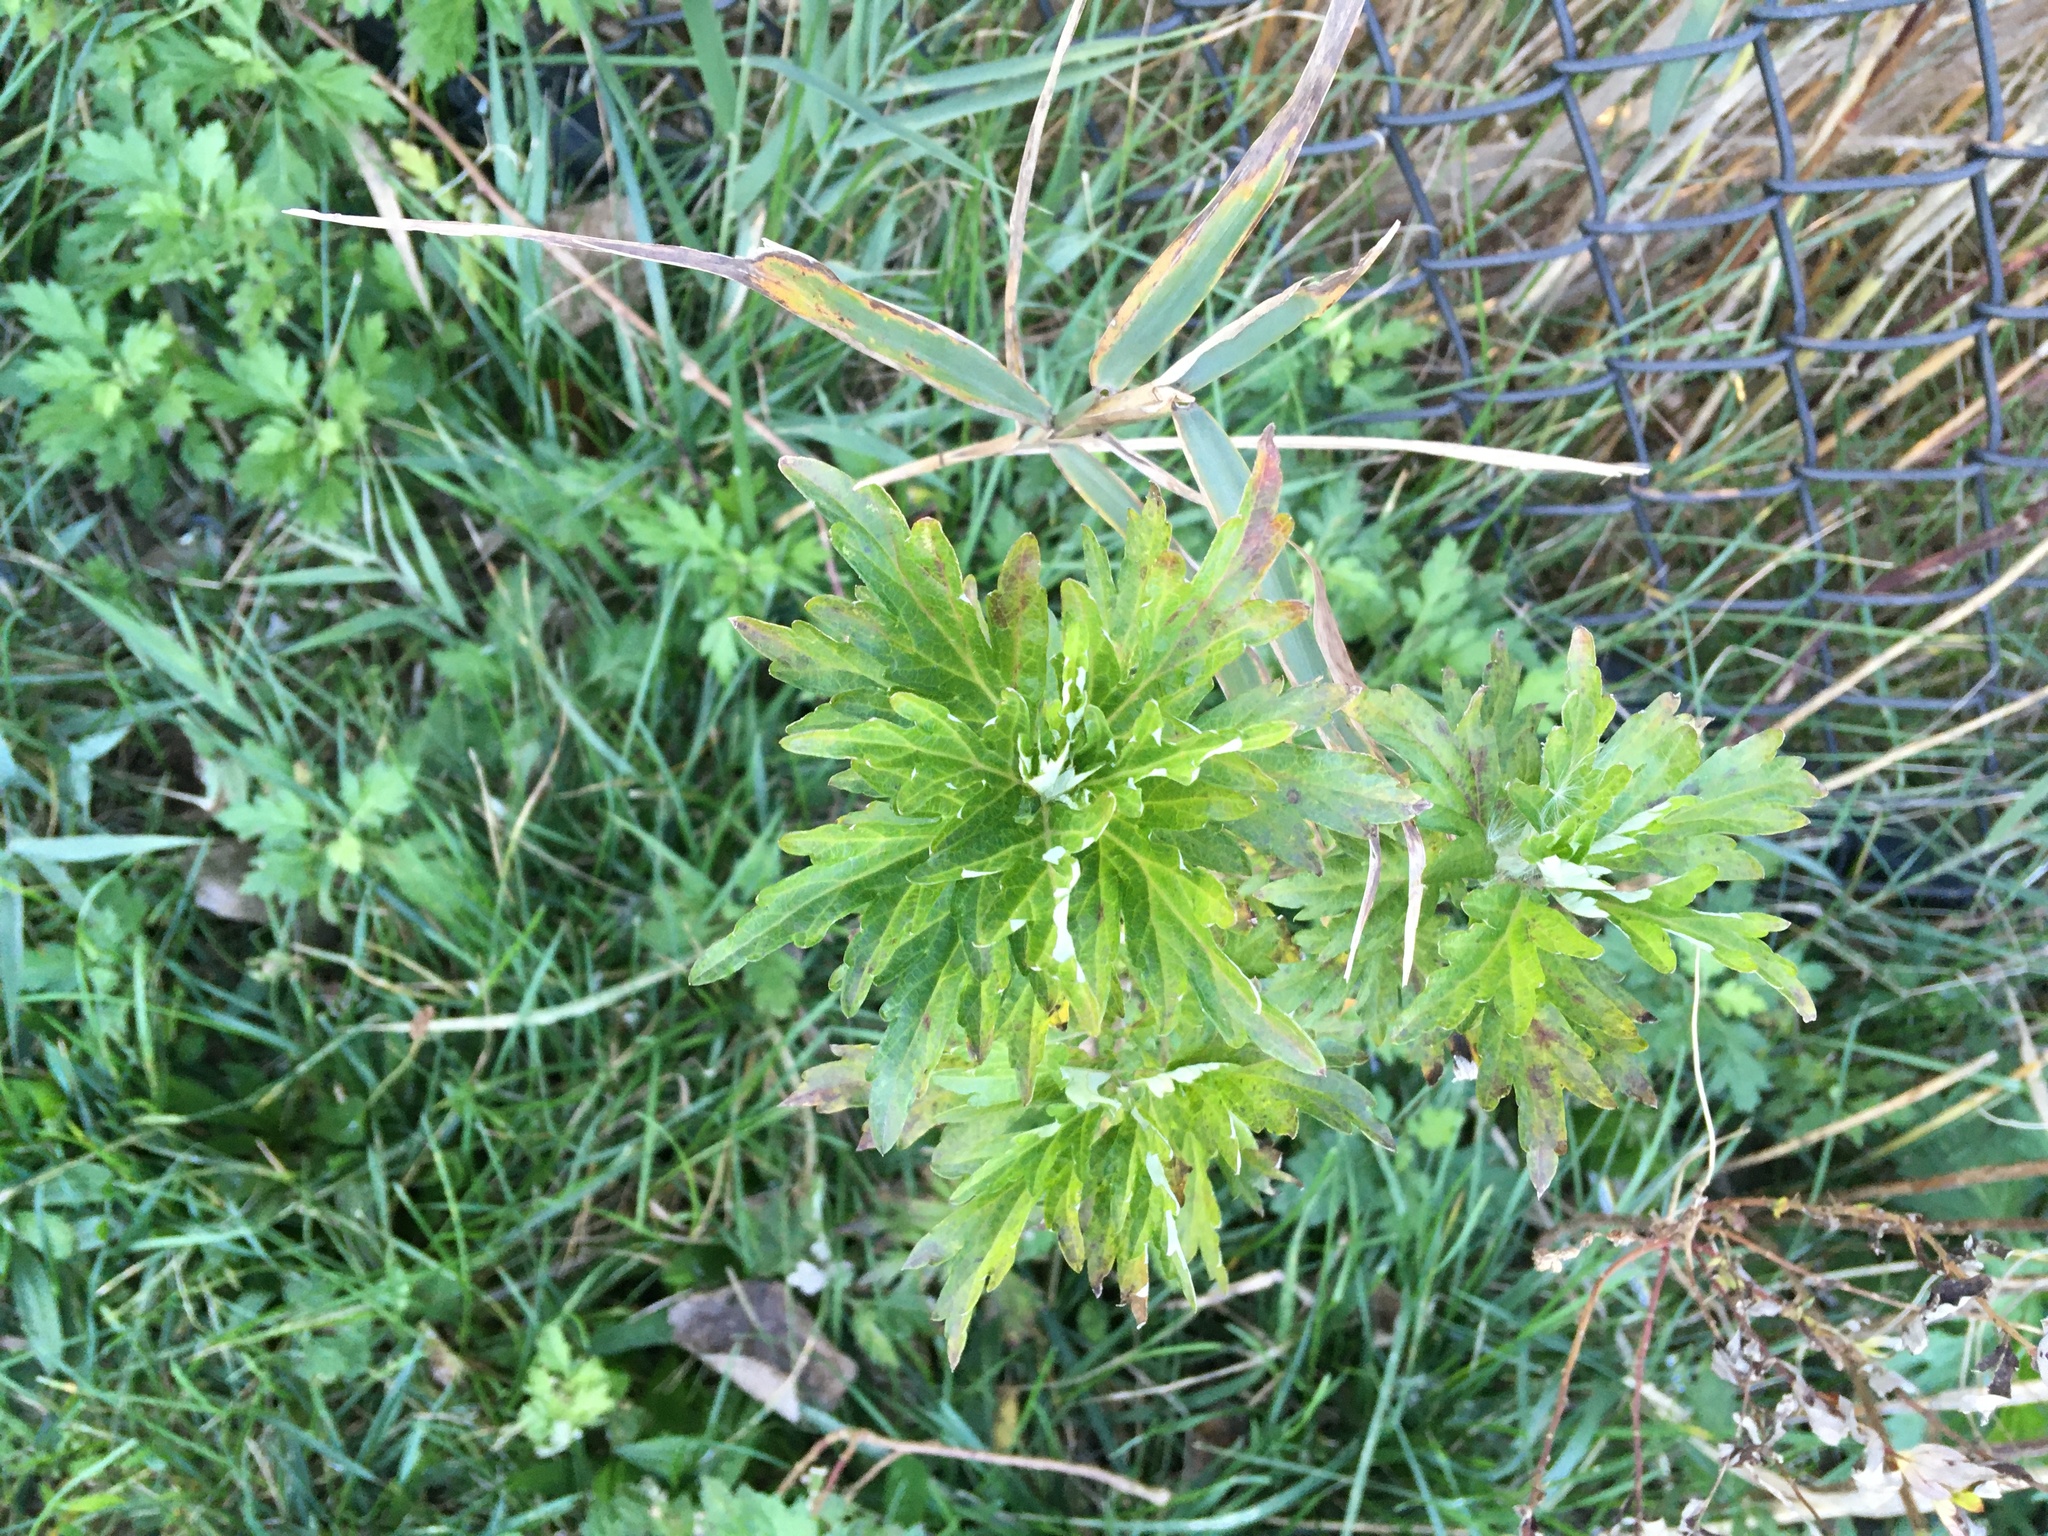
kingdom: Plantae
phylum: Tracheophyta
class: Magnoliopsida
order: Asterales
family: Asteraceae
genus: Artemisia
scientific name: Artemisia vulgaris
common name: Mugwort
